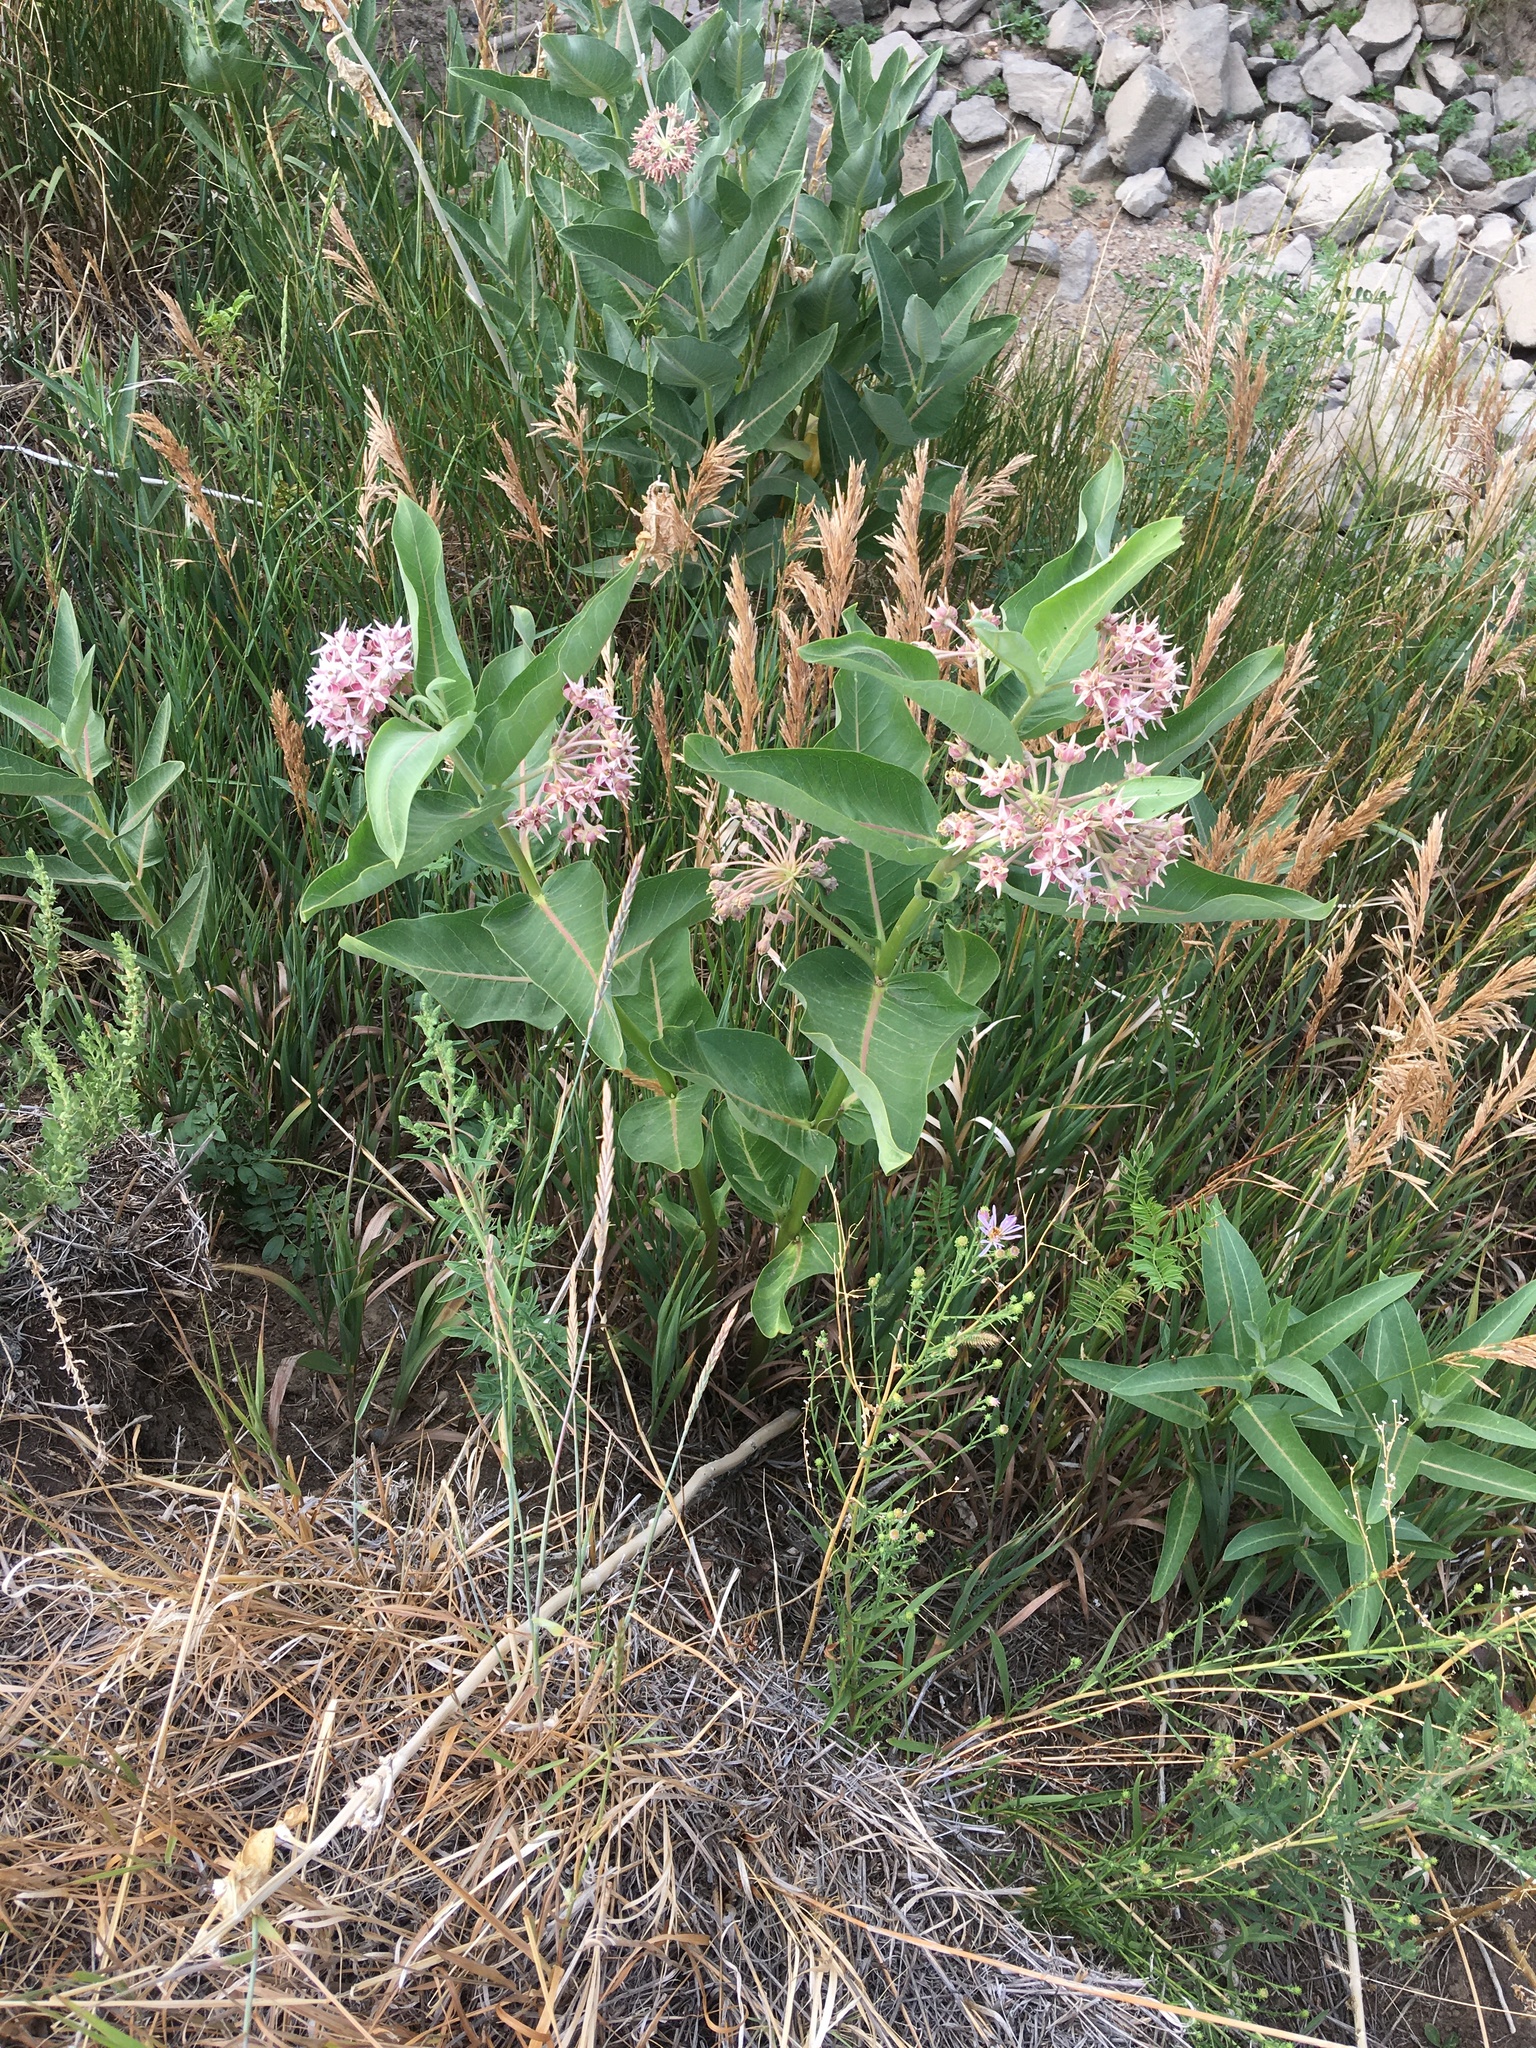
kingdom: Plantae
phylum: Tracheophyta
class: Magnoliopsida
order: Gentianales
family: Apocynaceae
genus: Asclepias
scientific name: Asclepias speciosa
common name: Showy milkweed
